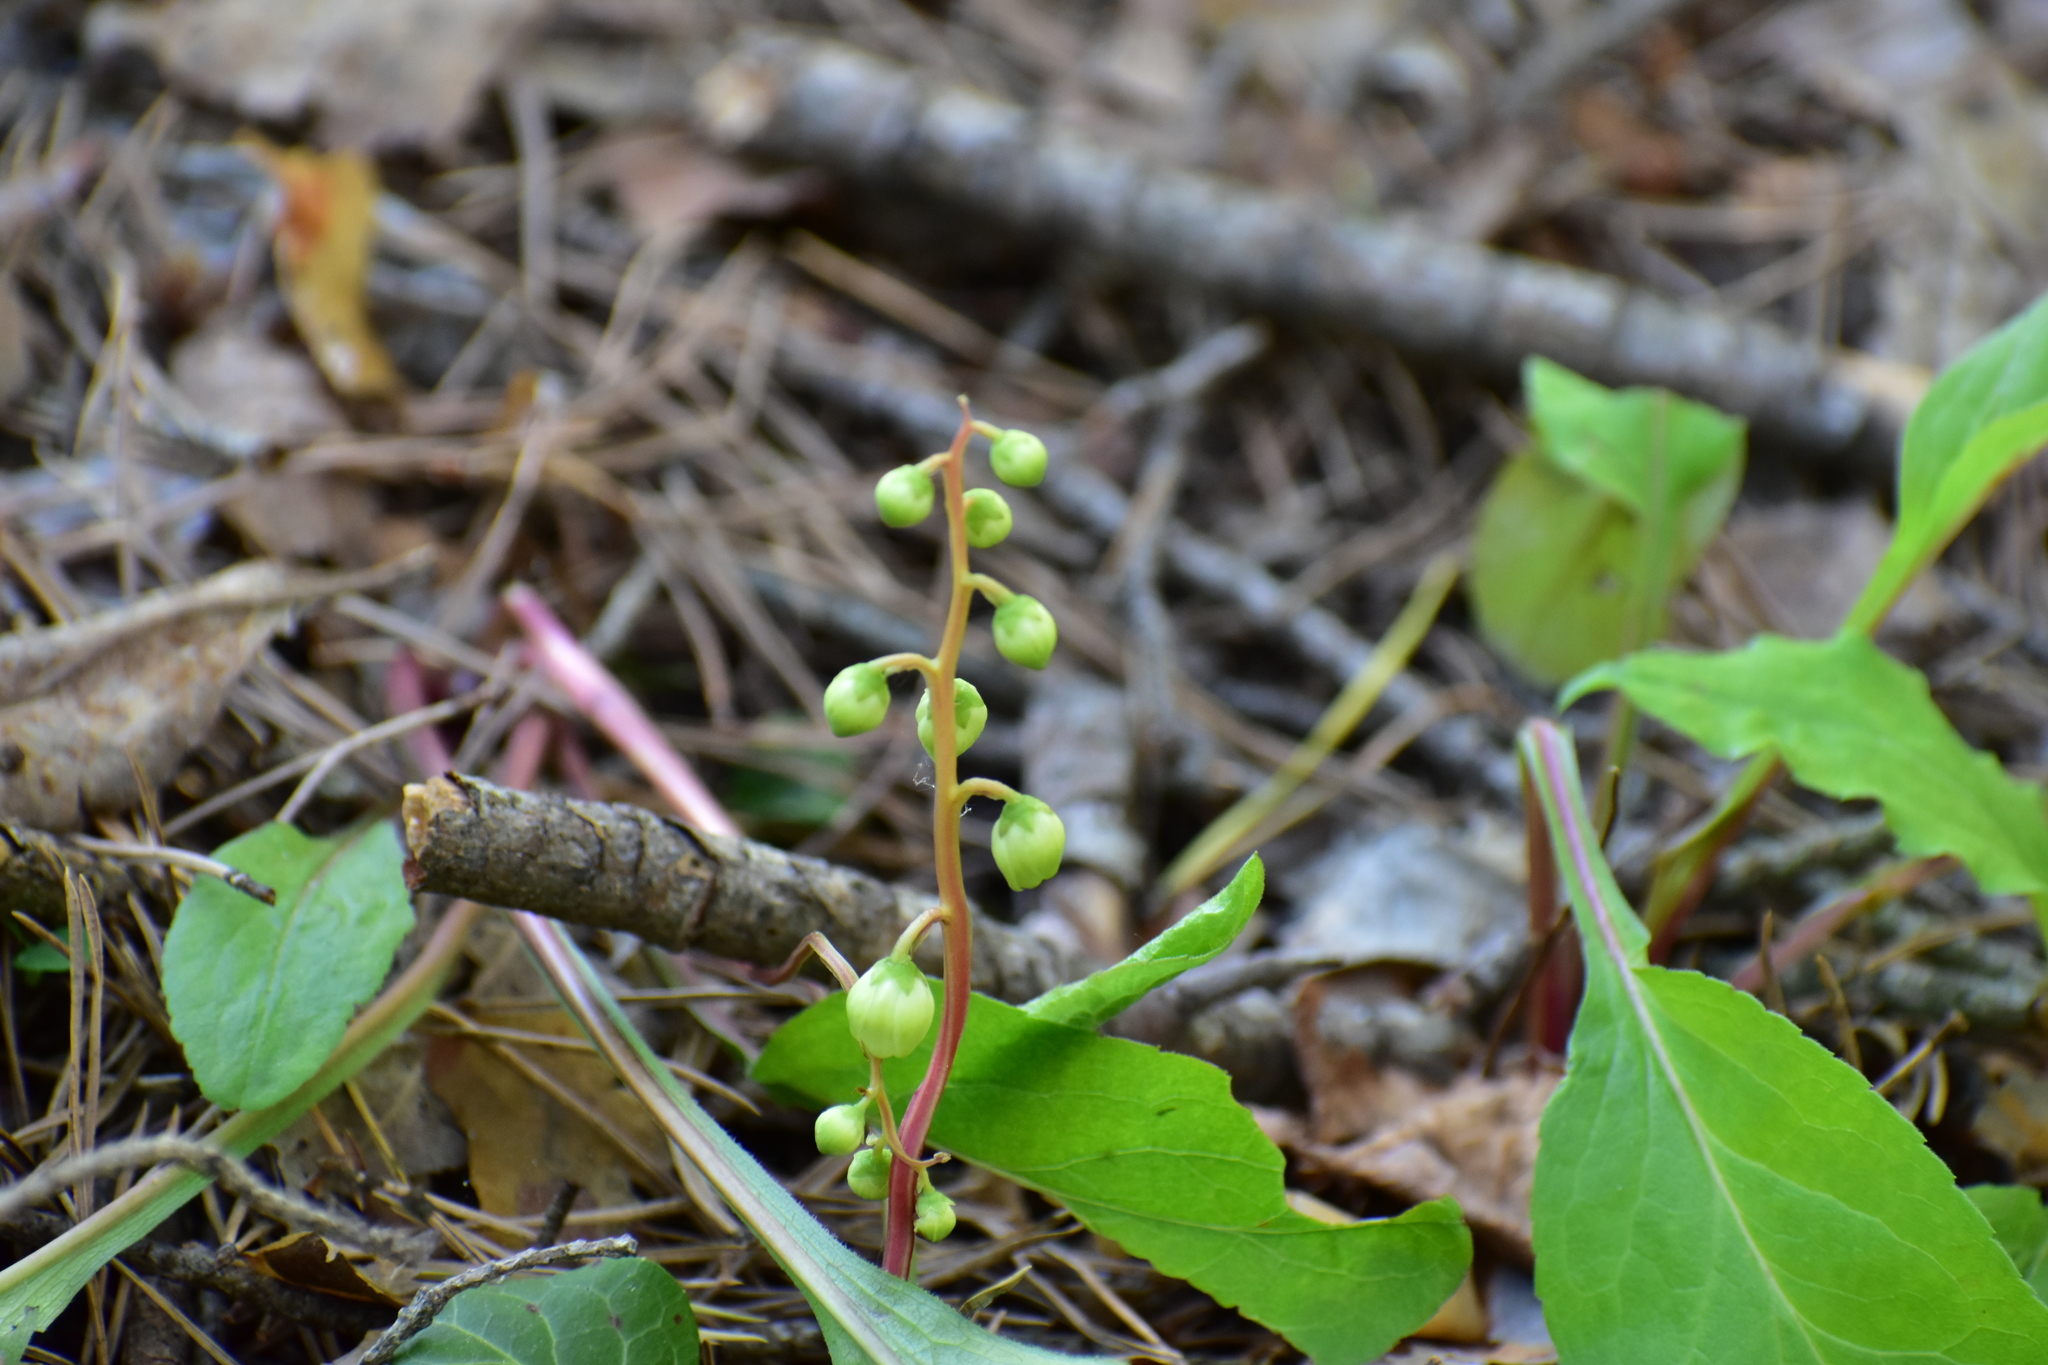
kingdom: Plantae
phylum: Tracheophyta
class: Magnoliopsida
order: Ericales
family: Ericaceae
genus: Pyrola
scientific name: Pyrola chlorantha
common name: Green wintergreen
